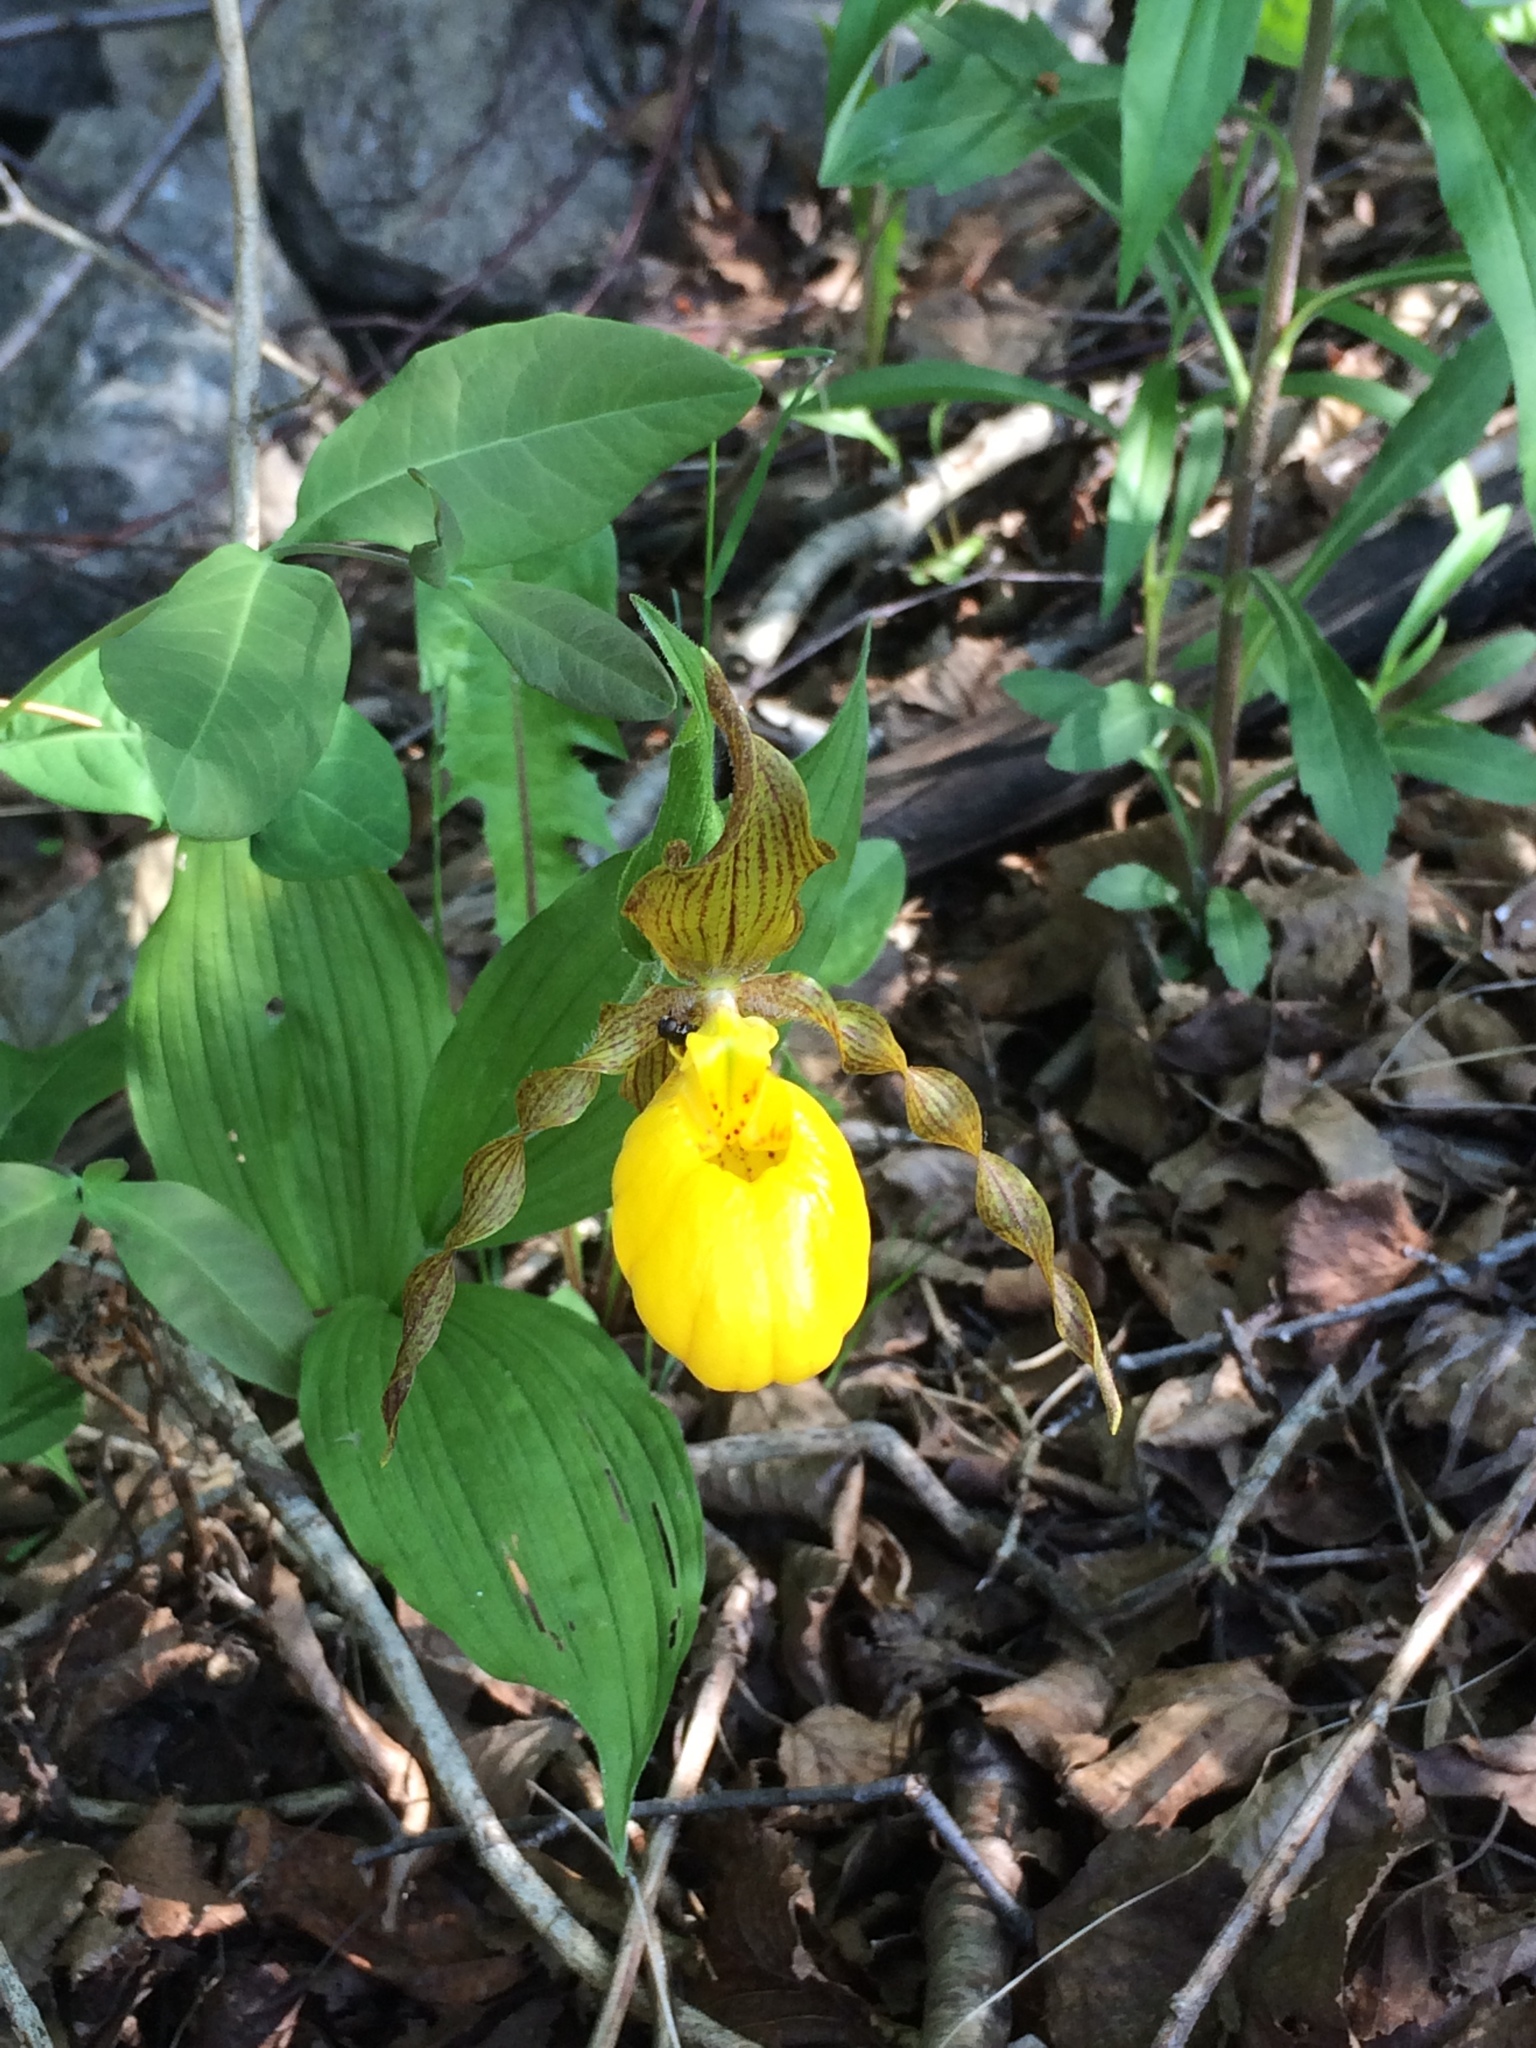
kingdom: Plantae
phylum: Tracheophyta
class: Liliopsida
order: Asparagales
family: Orchidaceae
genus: Cypripedium
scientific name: Cypripedium parviflorum
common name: American yellow lady's-slipper
